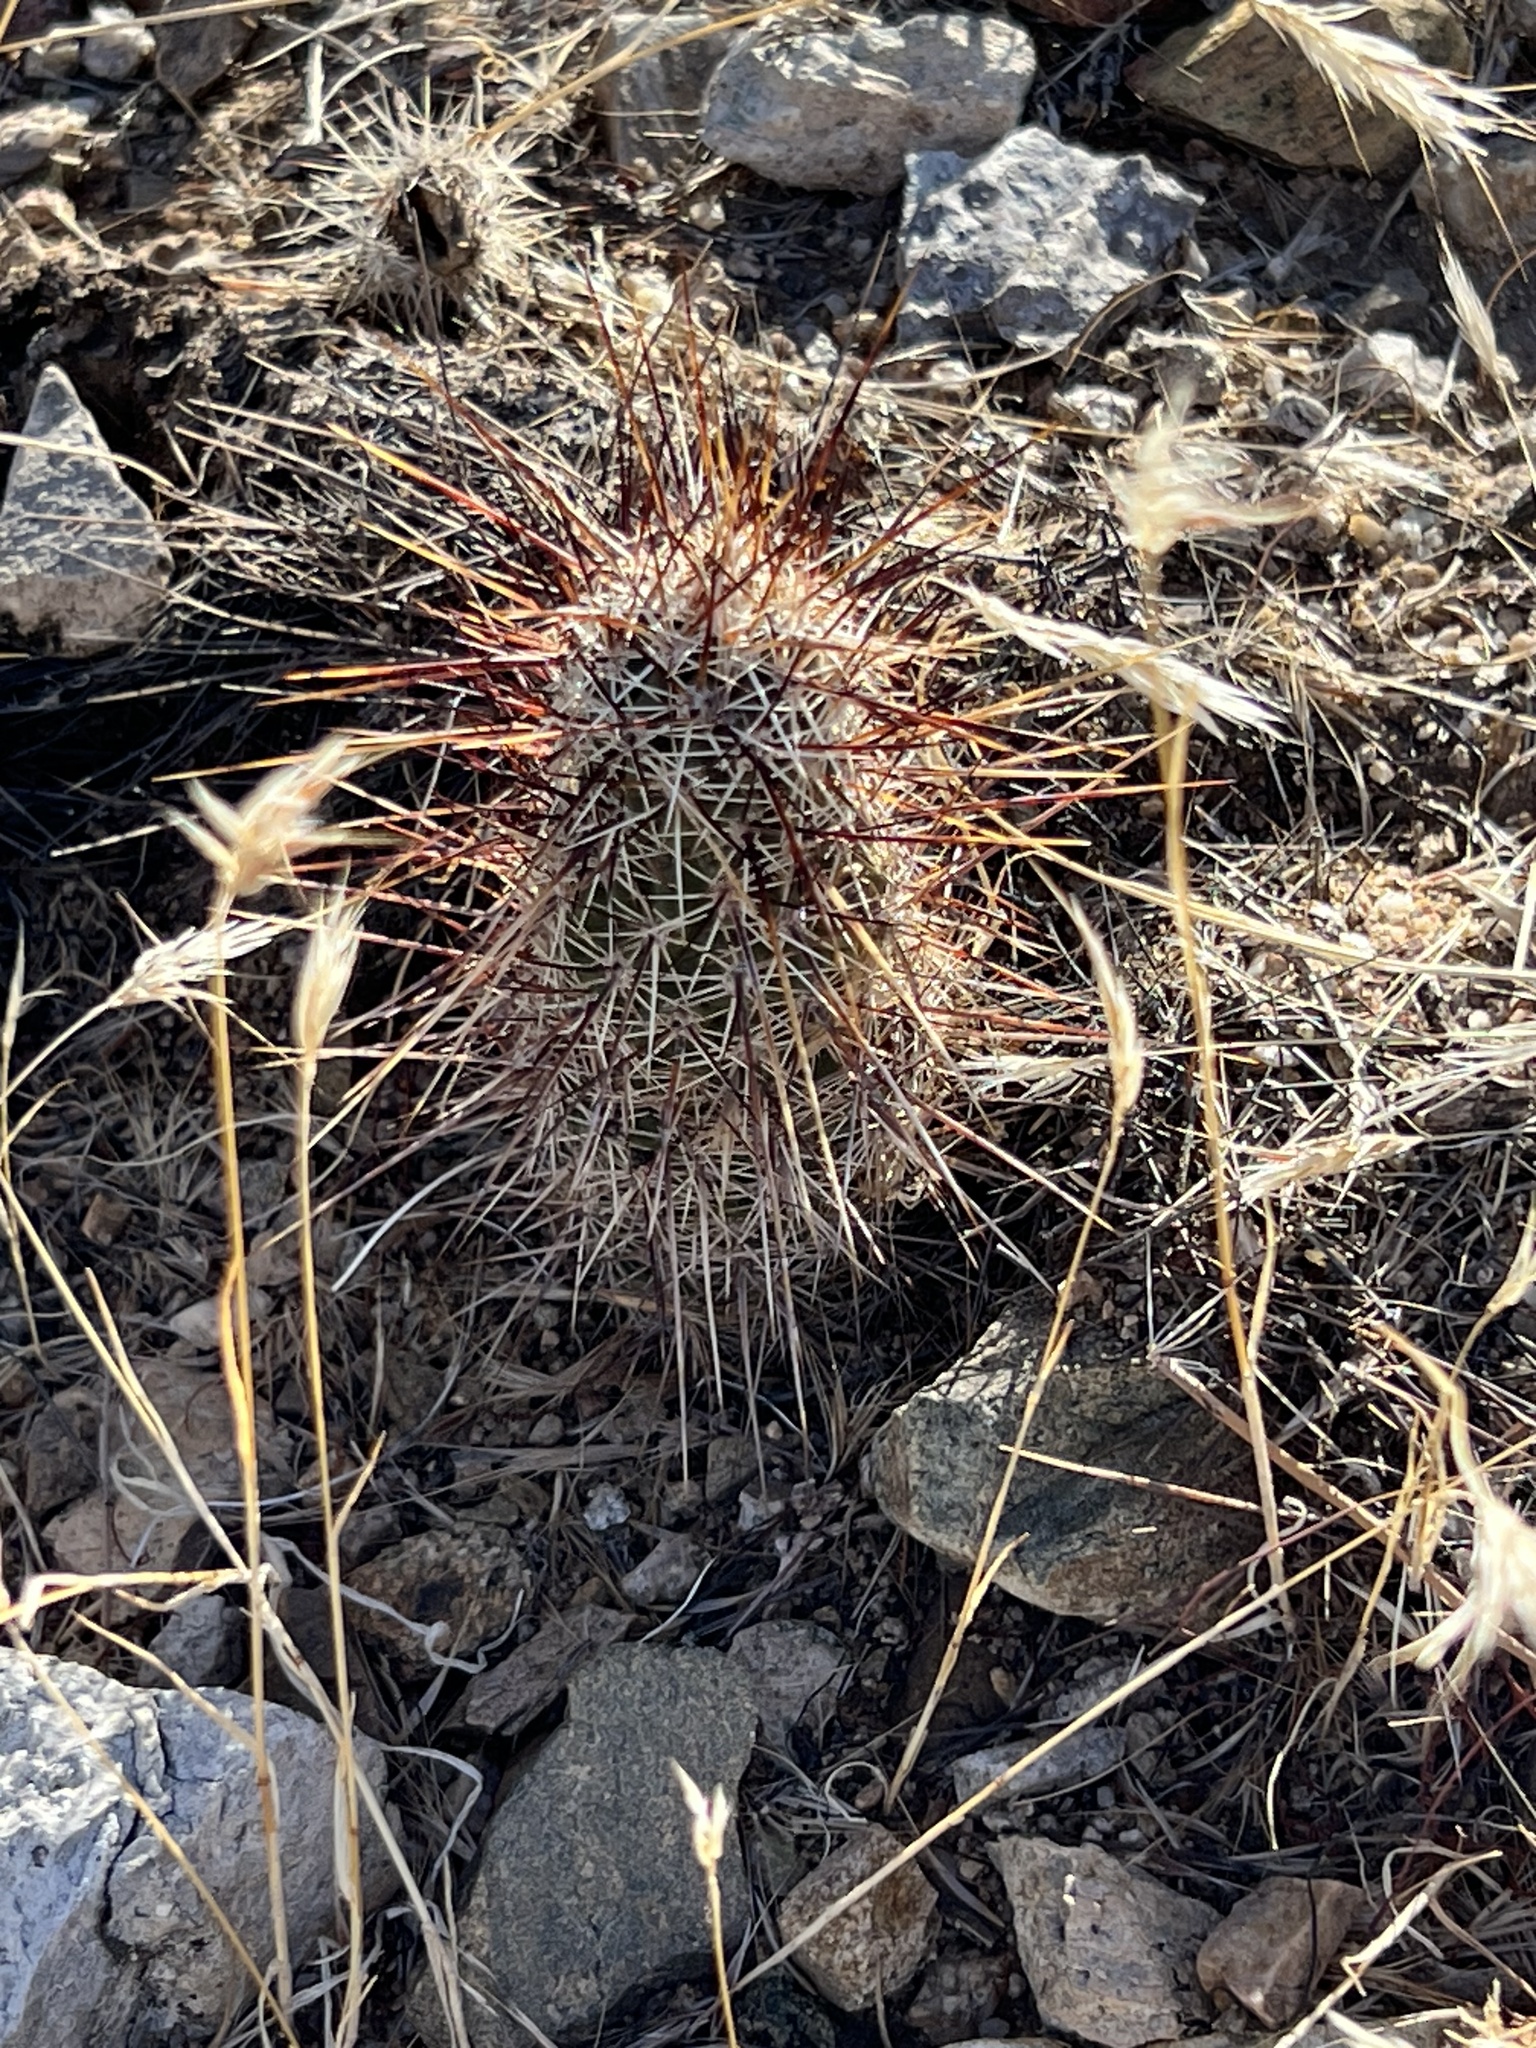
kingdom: Plantae
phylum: Tracheophyta
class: Magnoliopsida
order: Caryophyllales
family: Cactaceae
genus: Echinocereus
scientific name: Echinocereus engelmannii
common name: Engelmann's hedgehog cactus
